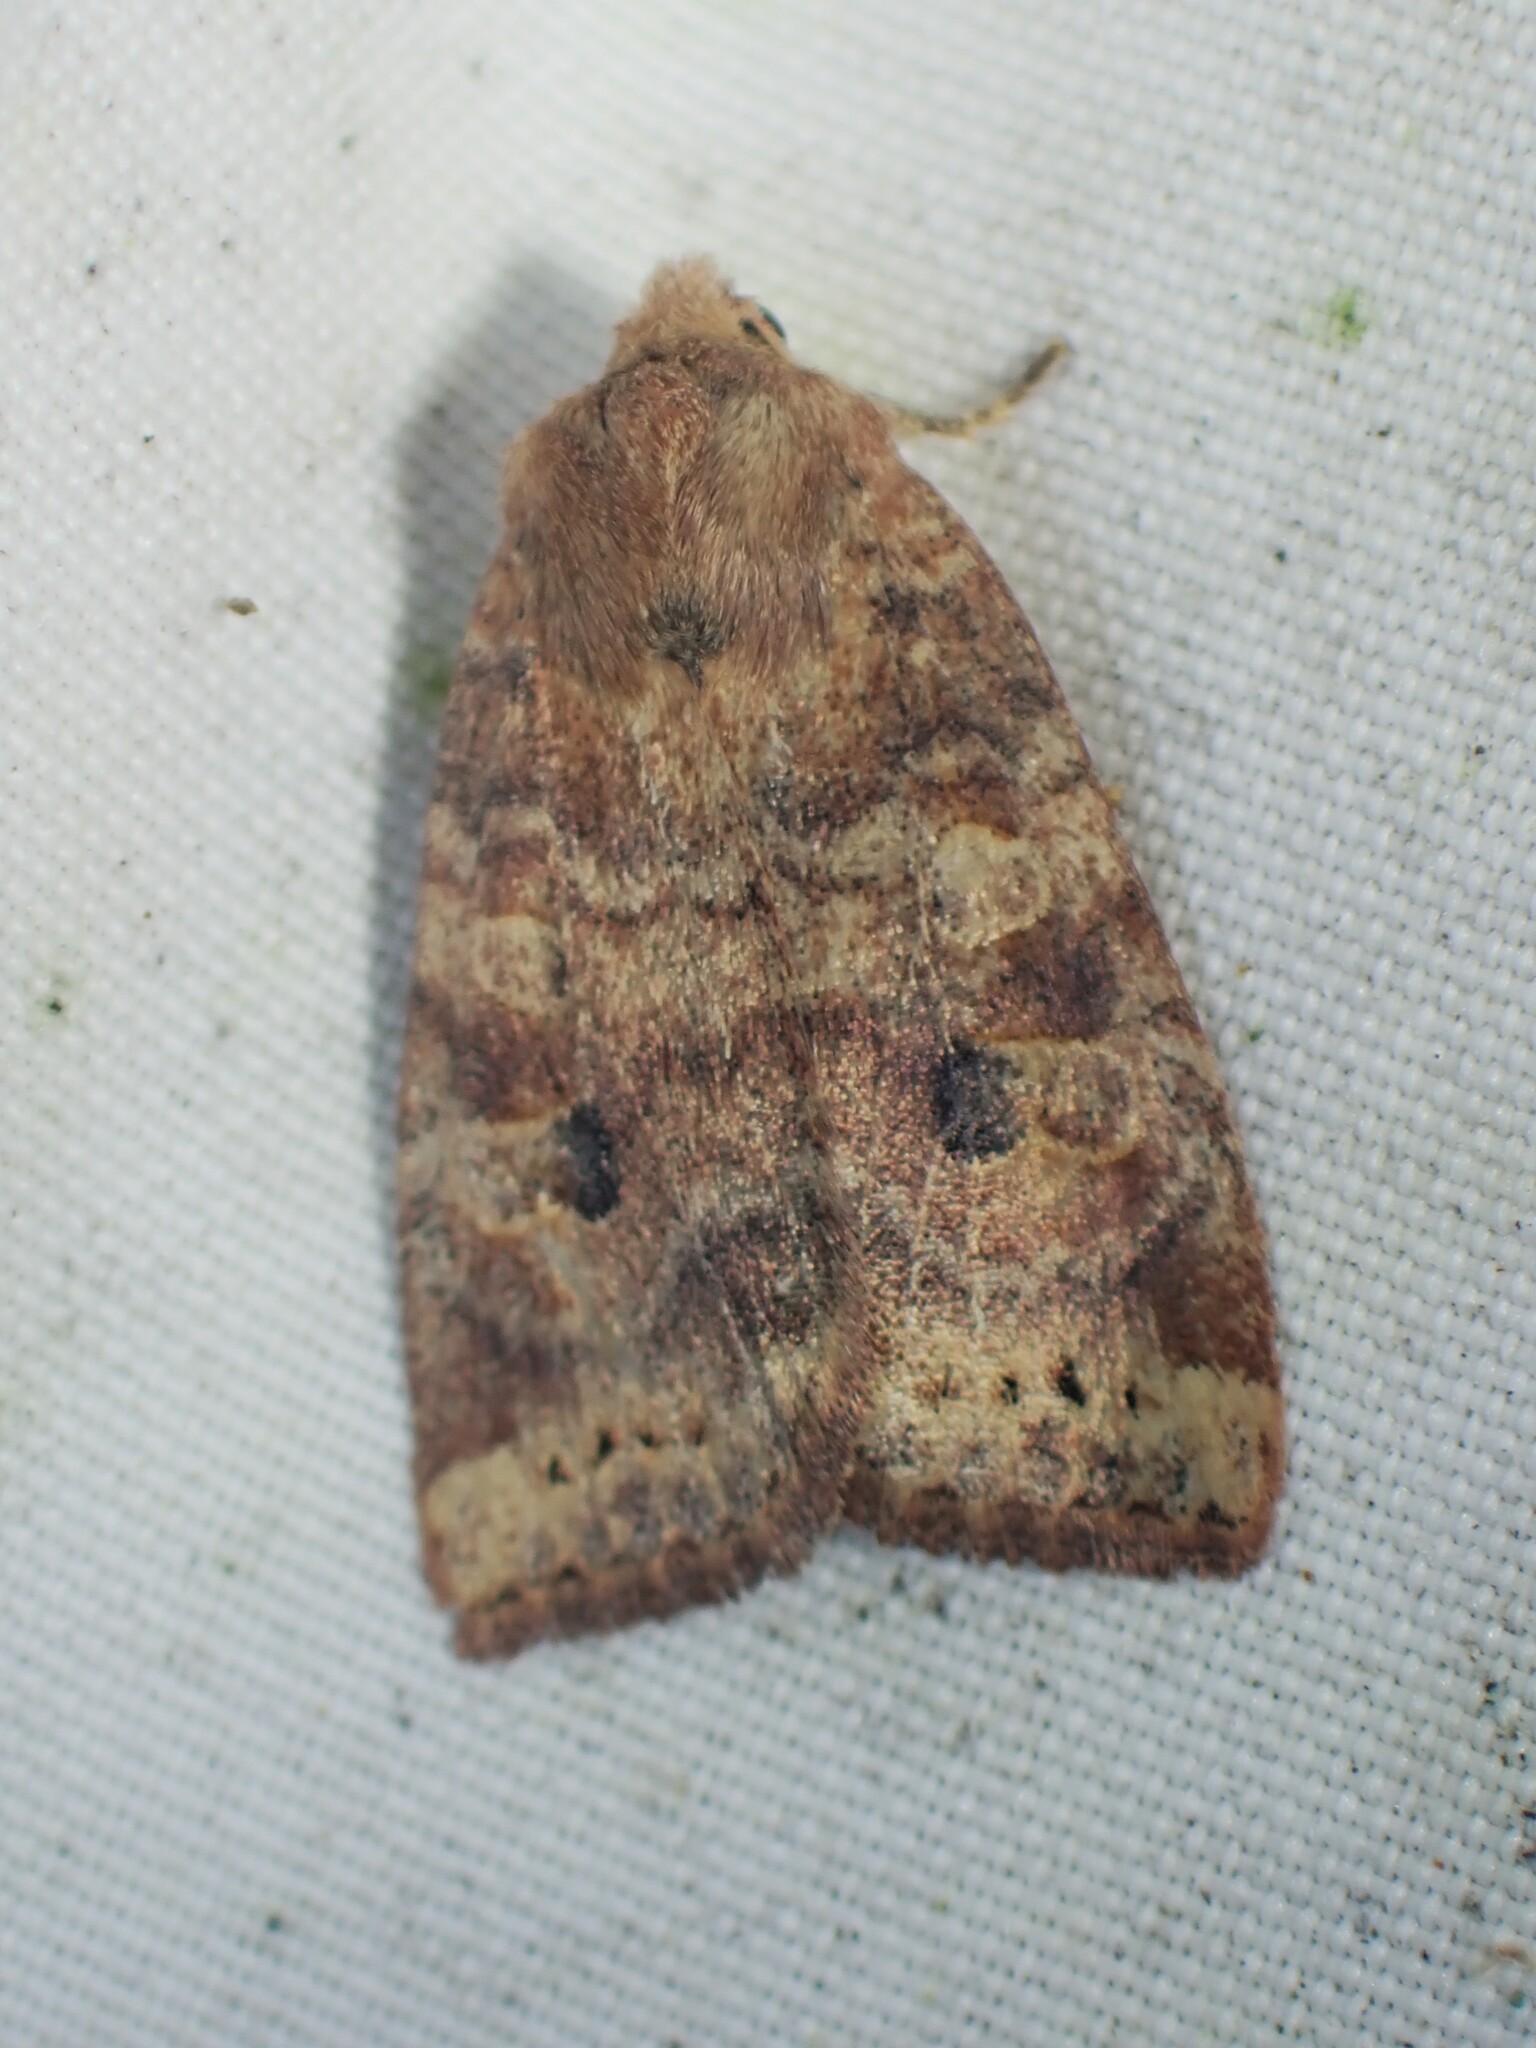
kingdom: Animalia
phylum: Arthropoda
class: Insecta
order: Lepidoptera
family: Noctuidae
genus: Anathix
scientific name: Anathix puta
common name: Puta sallow
